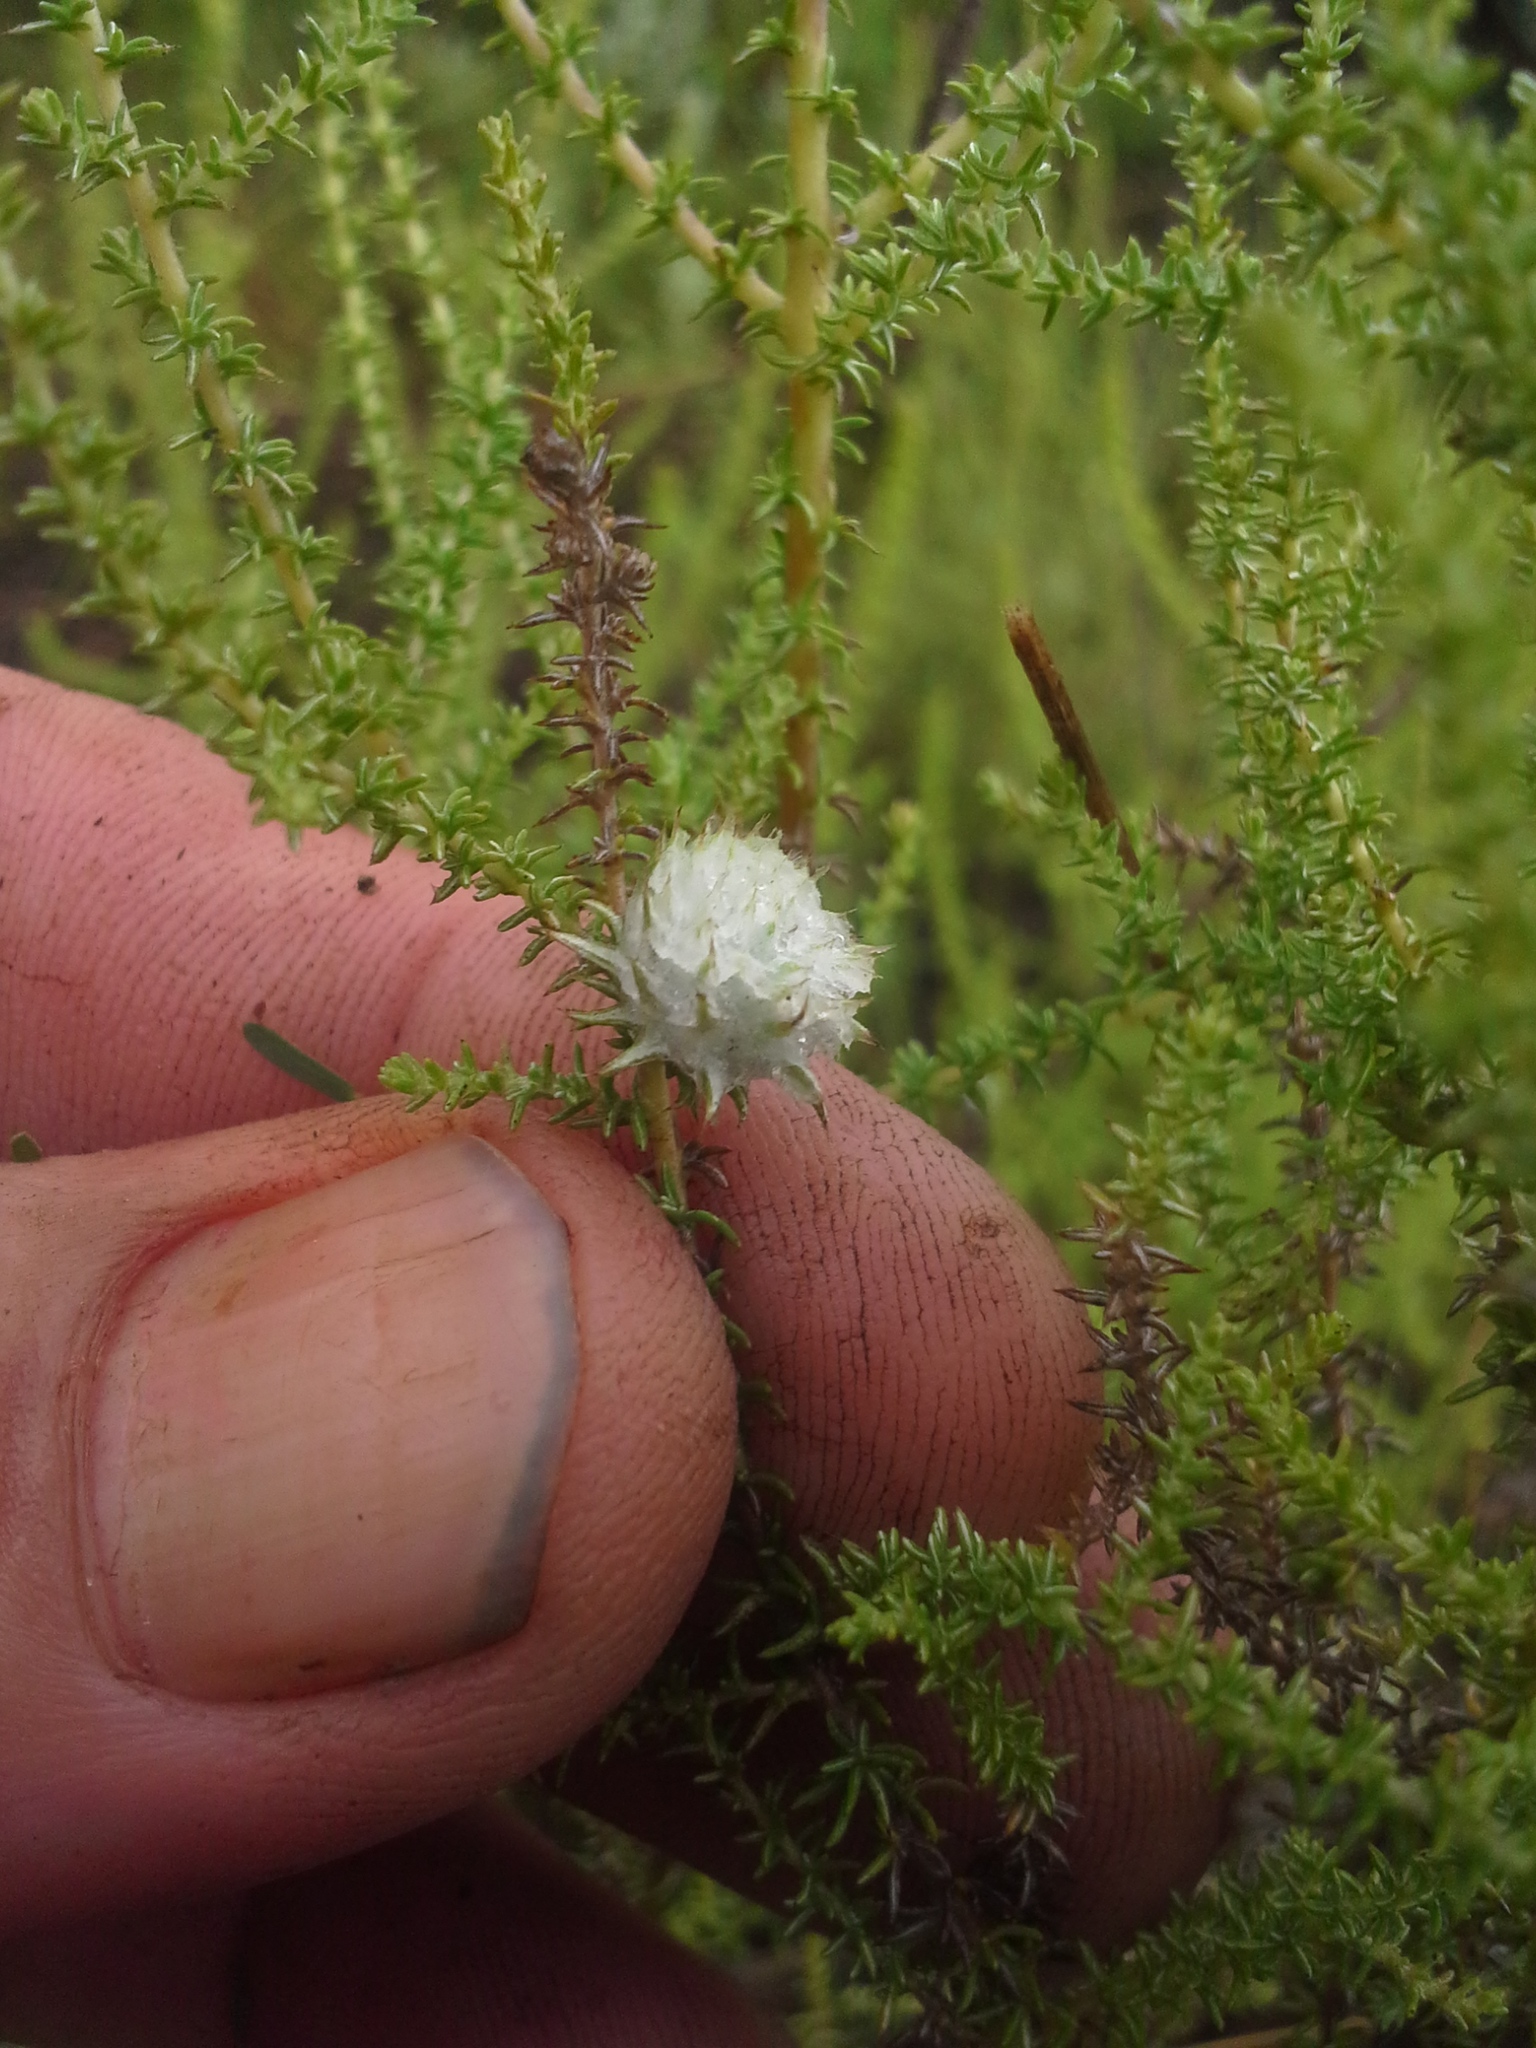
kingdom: Plantae
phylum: Tracheophyta
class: Magnoliopsida
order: Asterales
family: Asteraceae
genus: Seriphium
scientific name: Seriphium
